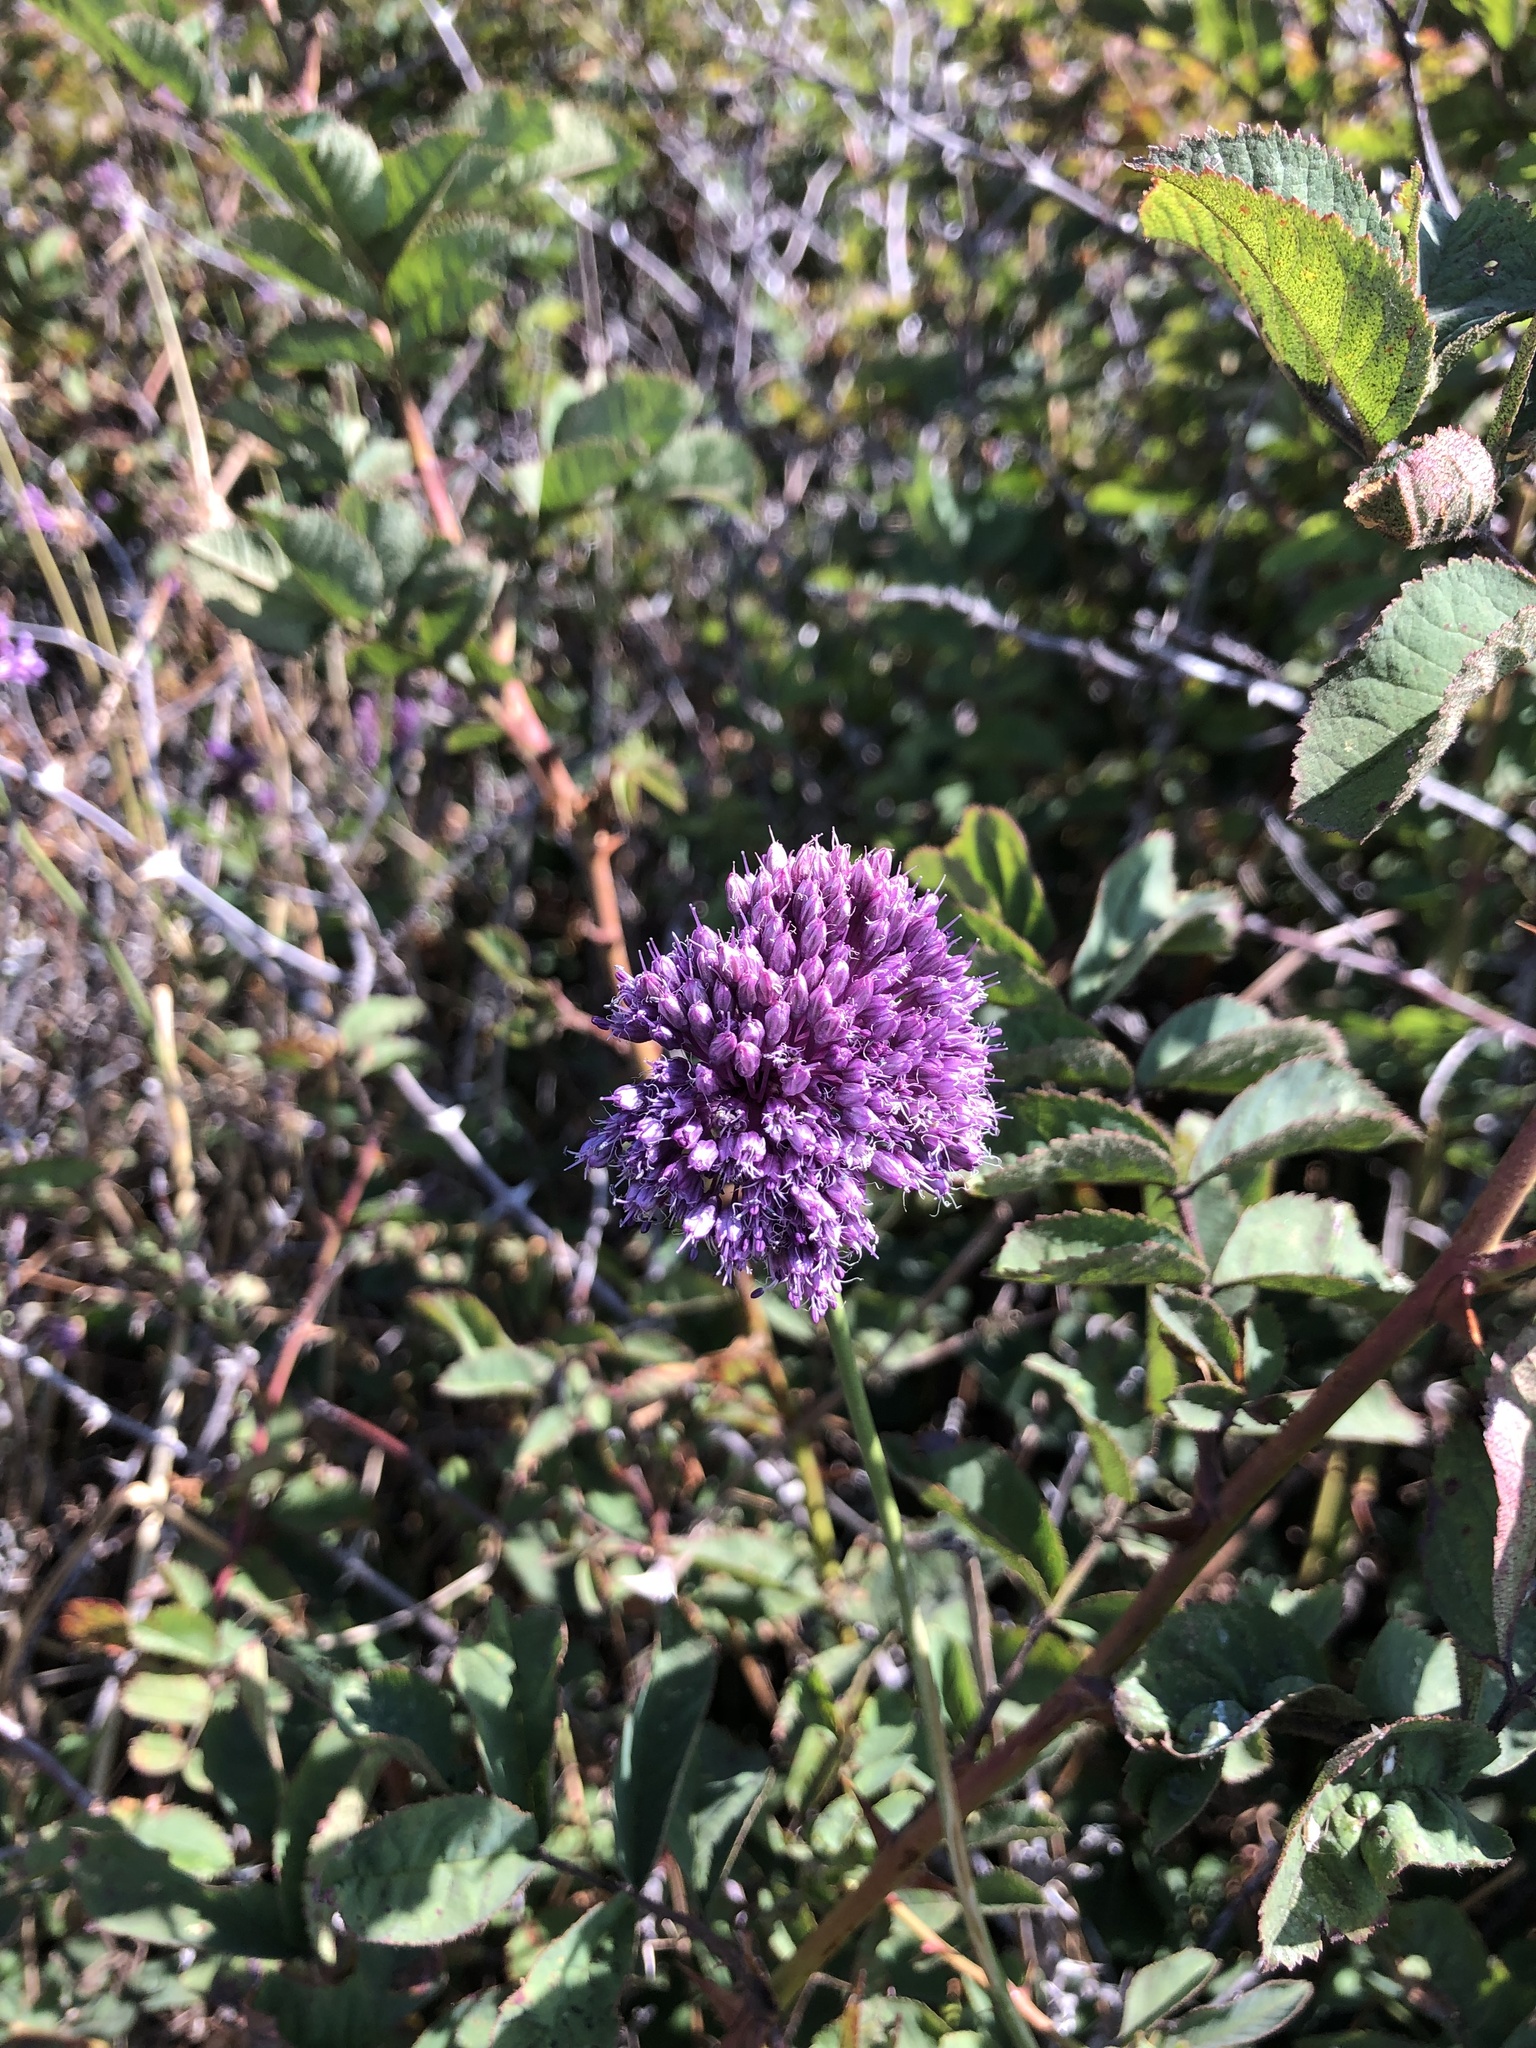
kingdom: Plantae
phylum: Tracheophyta
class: Liliopsida
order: Asparagales
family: Amaryllidaceae
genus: Allium
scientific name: Allium vineale
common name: Crow garlic
